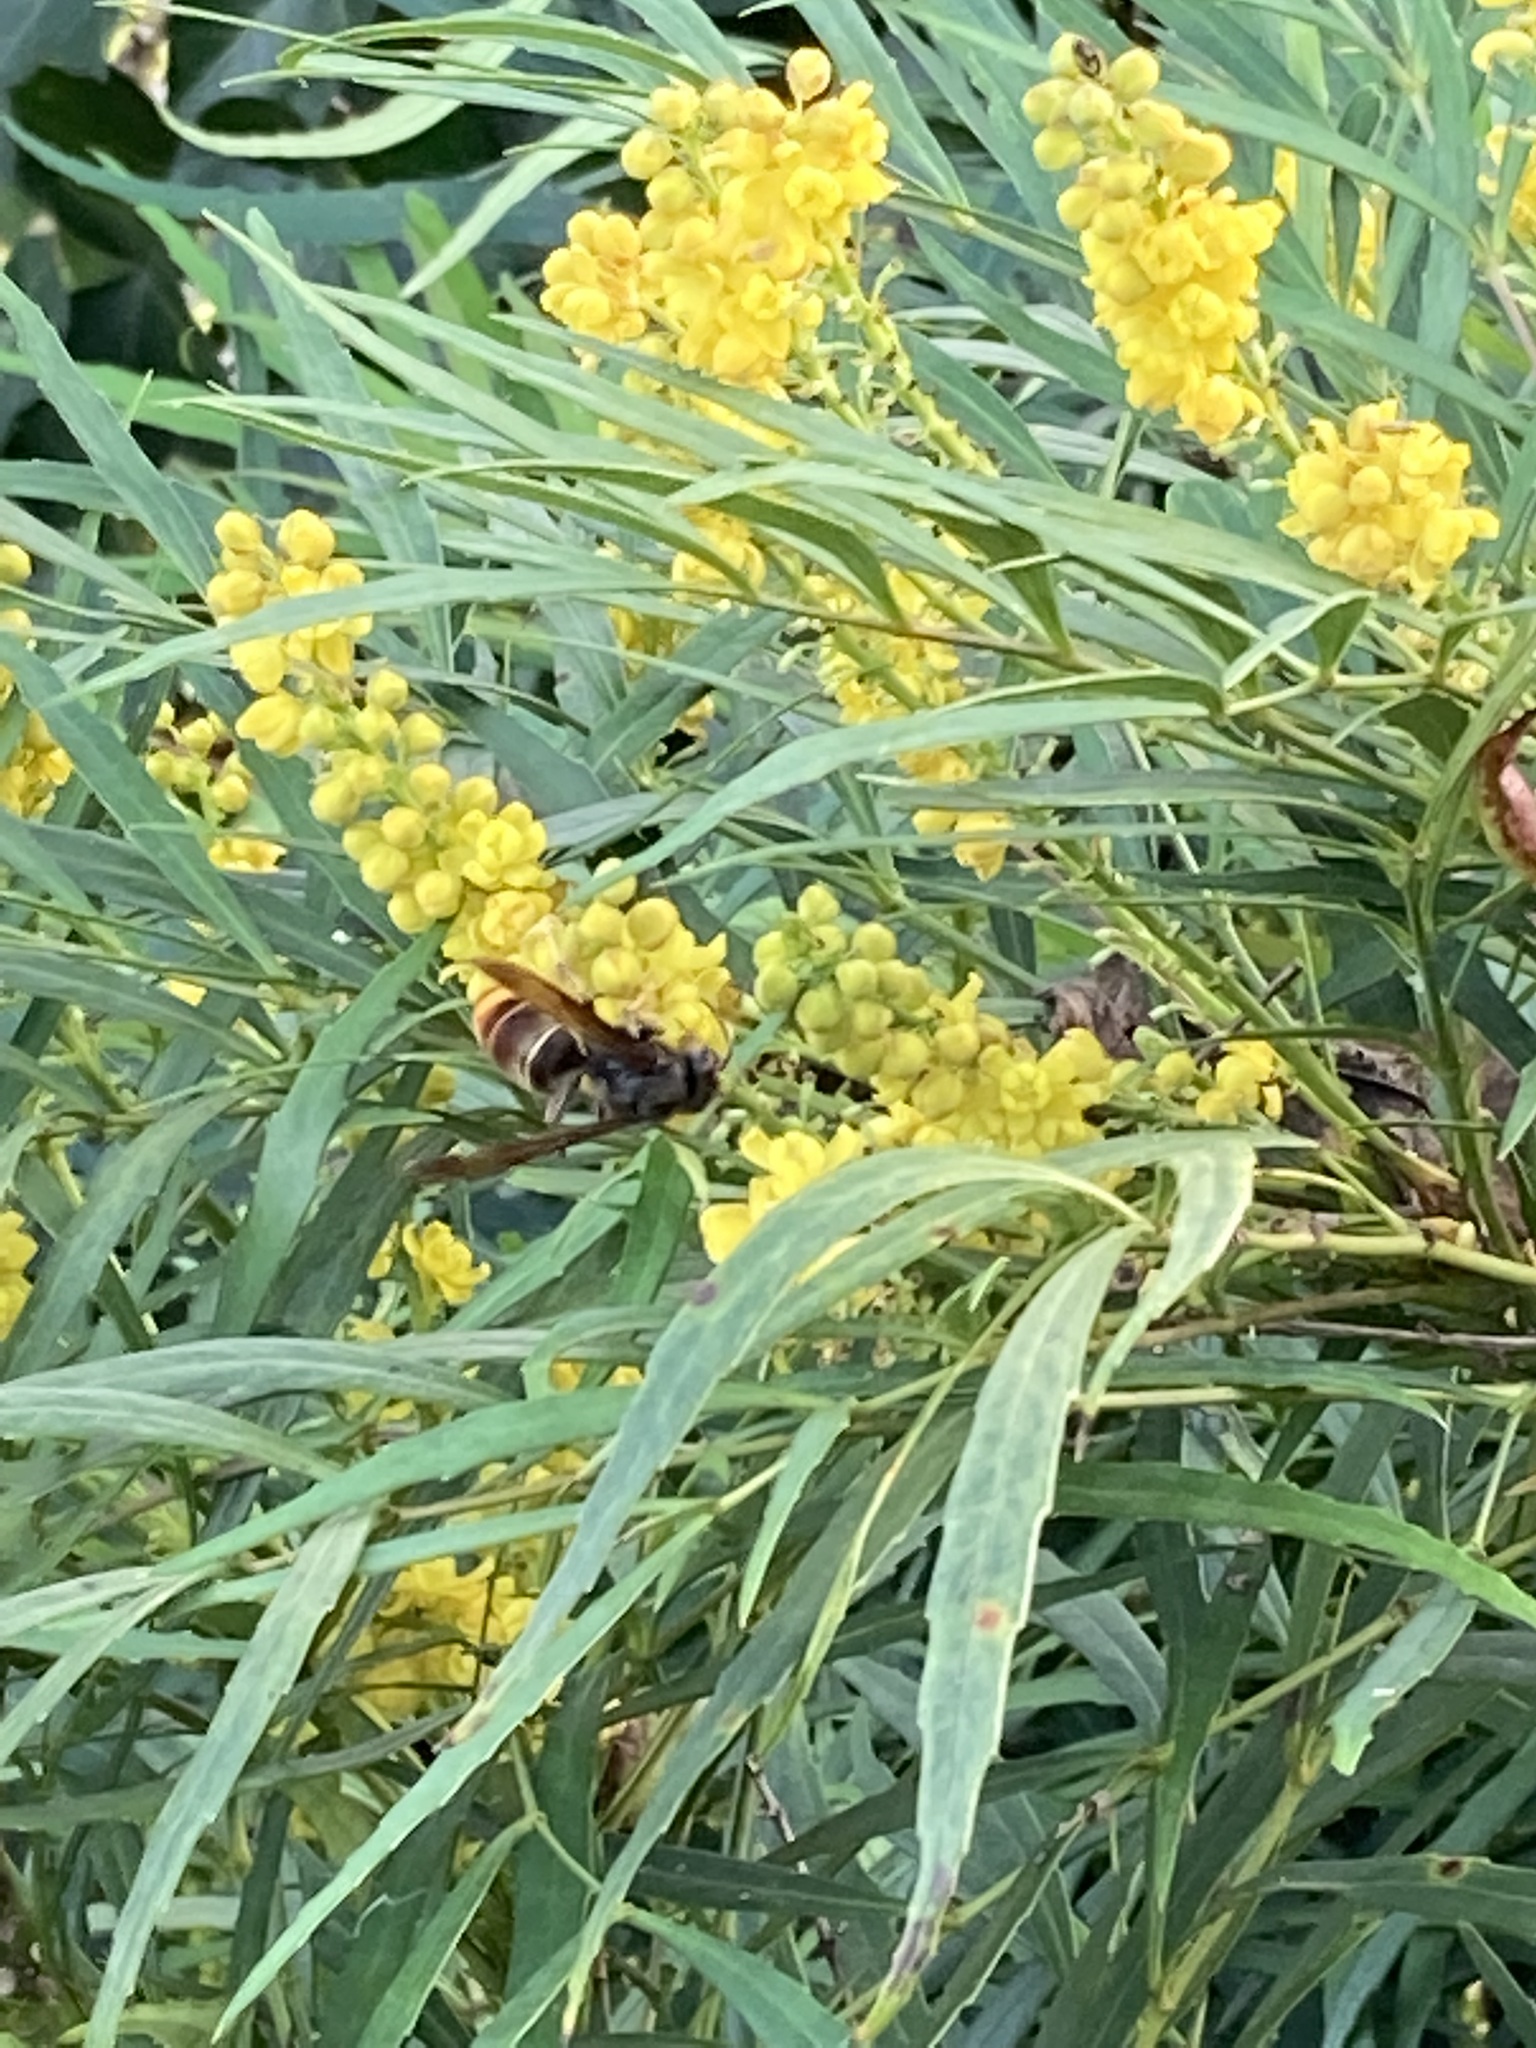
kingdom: Animalia
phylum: Arthropoda
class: Insecta
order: Hymenoptera
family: Vespidae
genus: Vespa
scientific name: Vespa velutina
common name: Asian hornet
